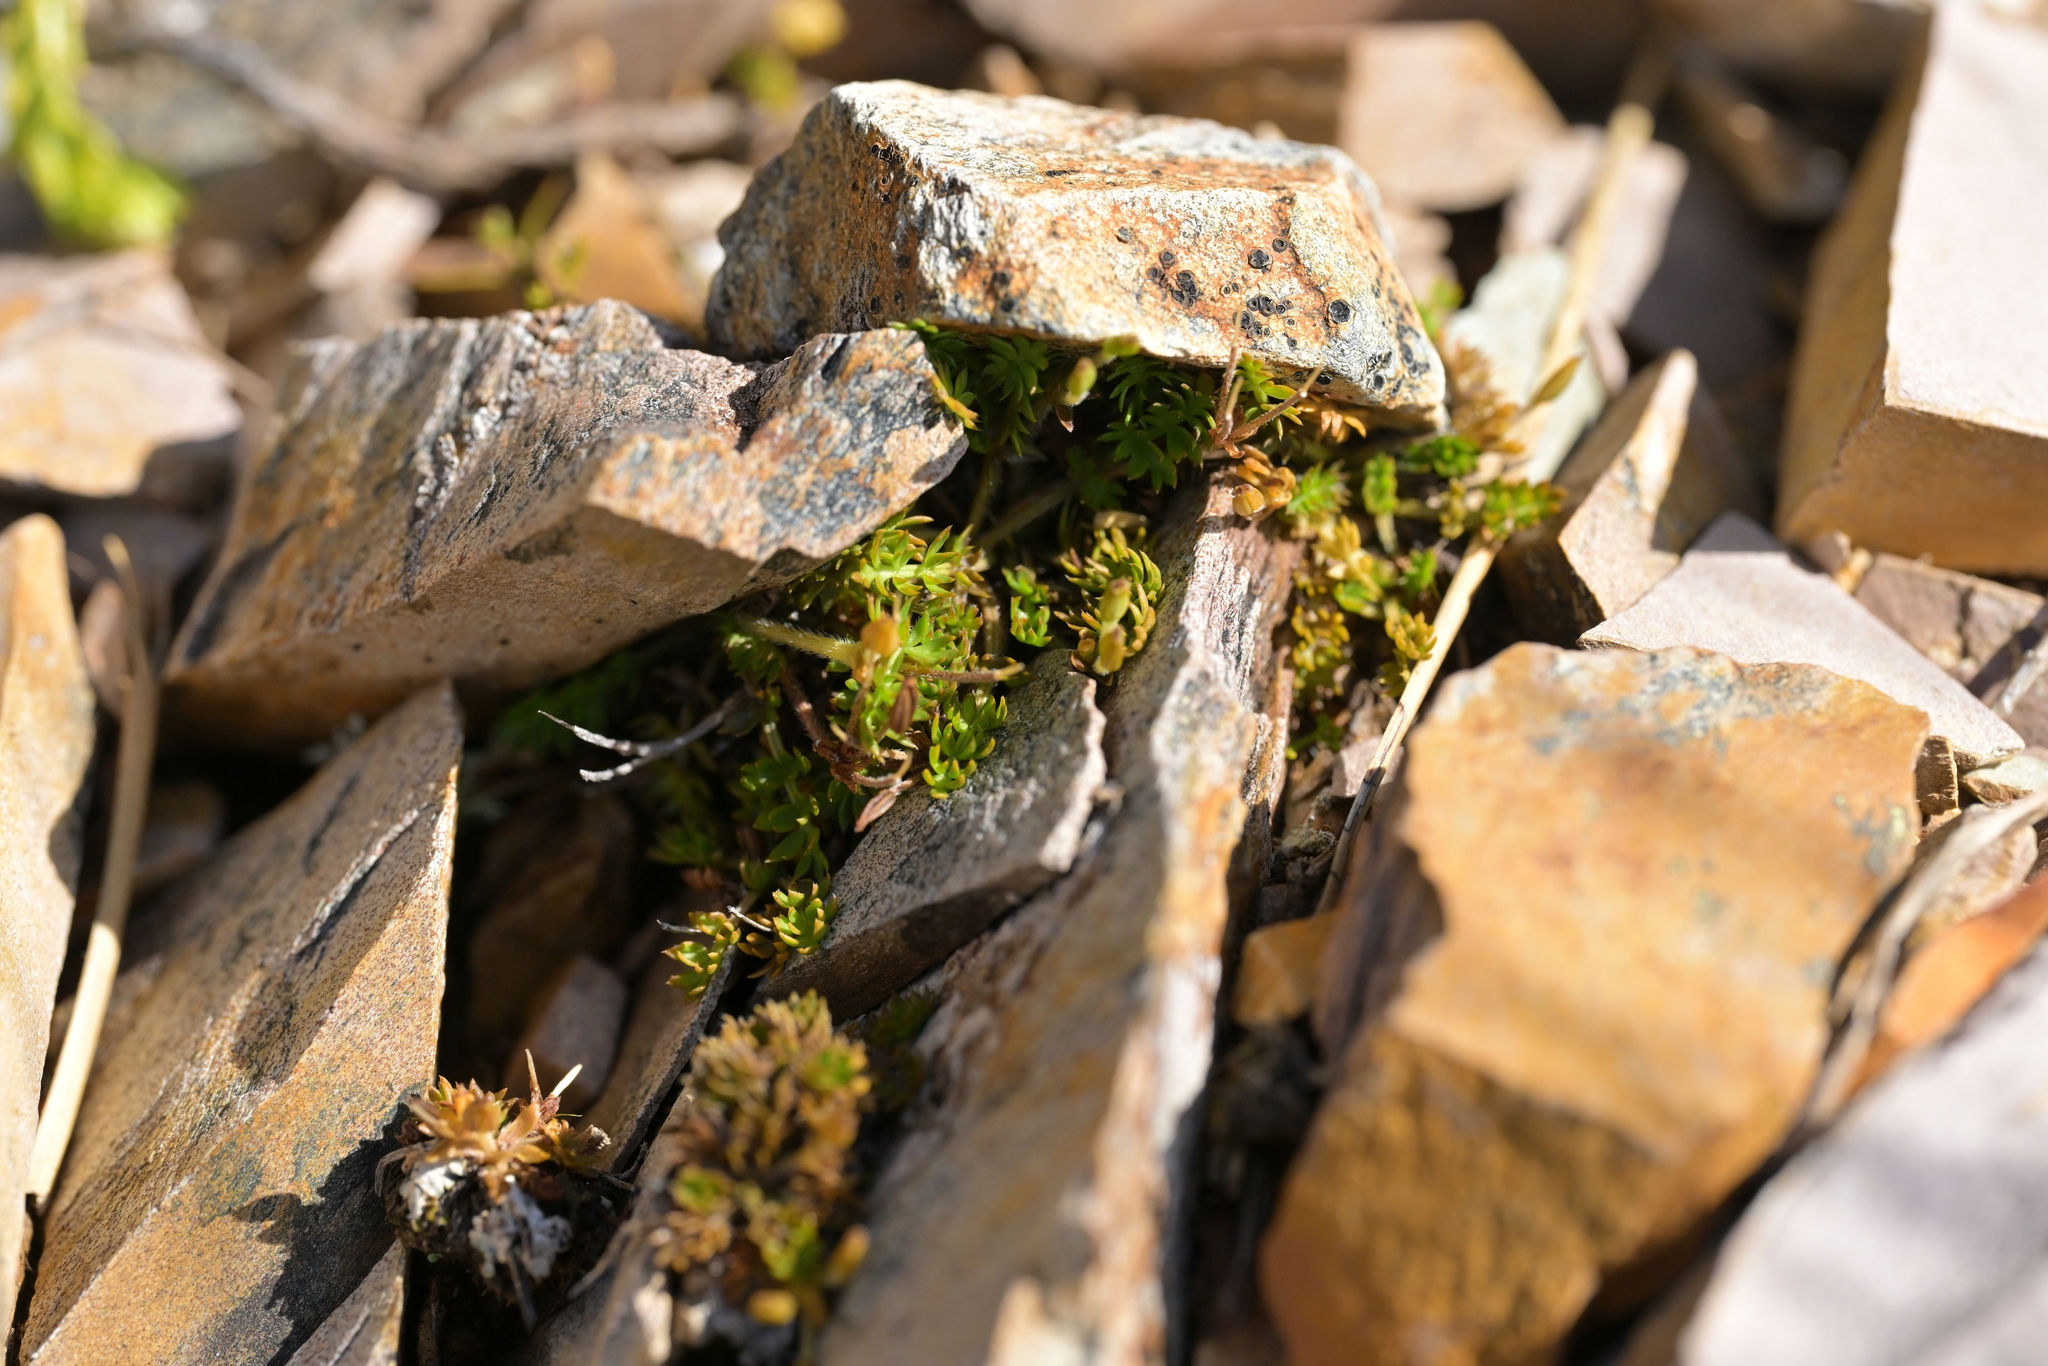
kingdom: Plantae
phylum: Tracheophyta
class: Magnoliopsida
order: Apiales
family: Apiaceae
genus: Chaerophyllum
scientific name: Chaerophyllum colensoi
